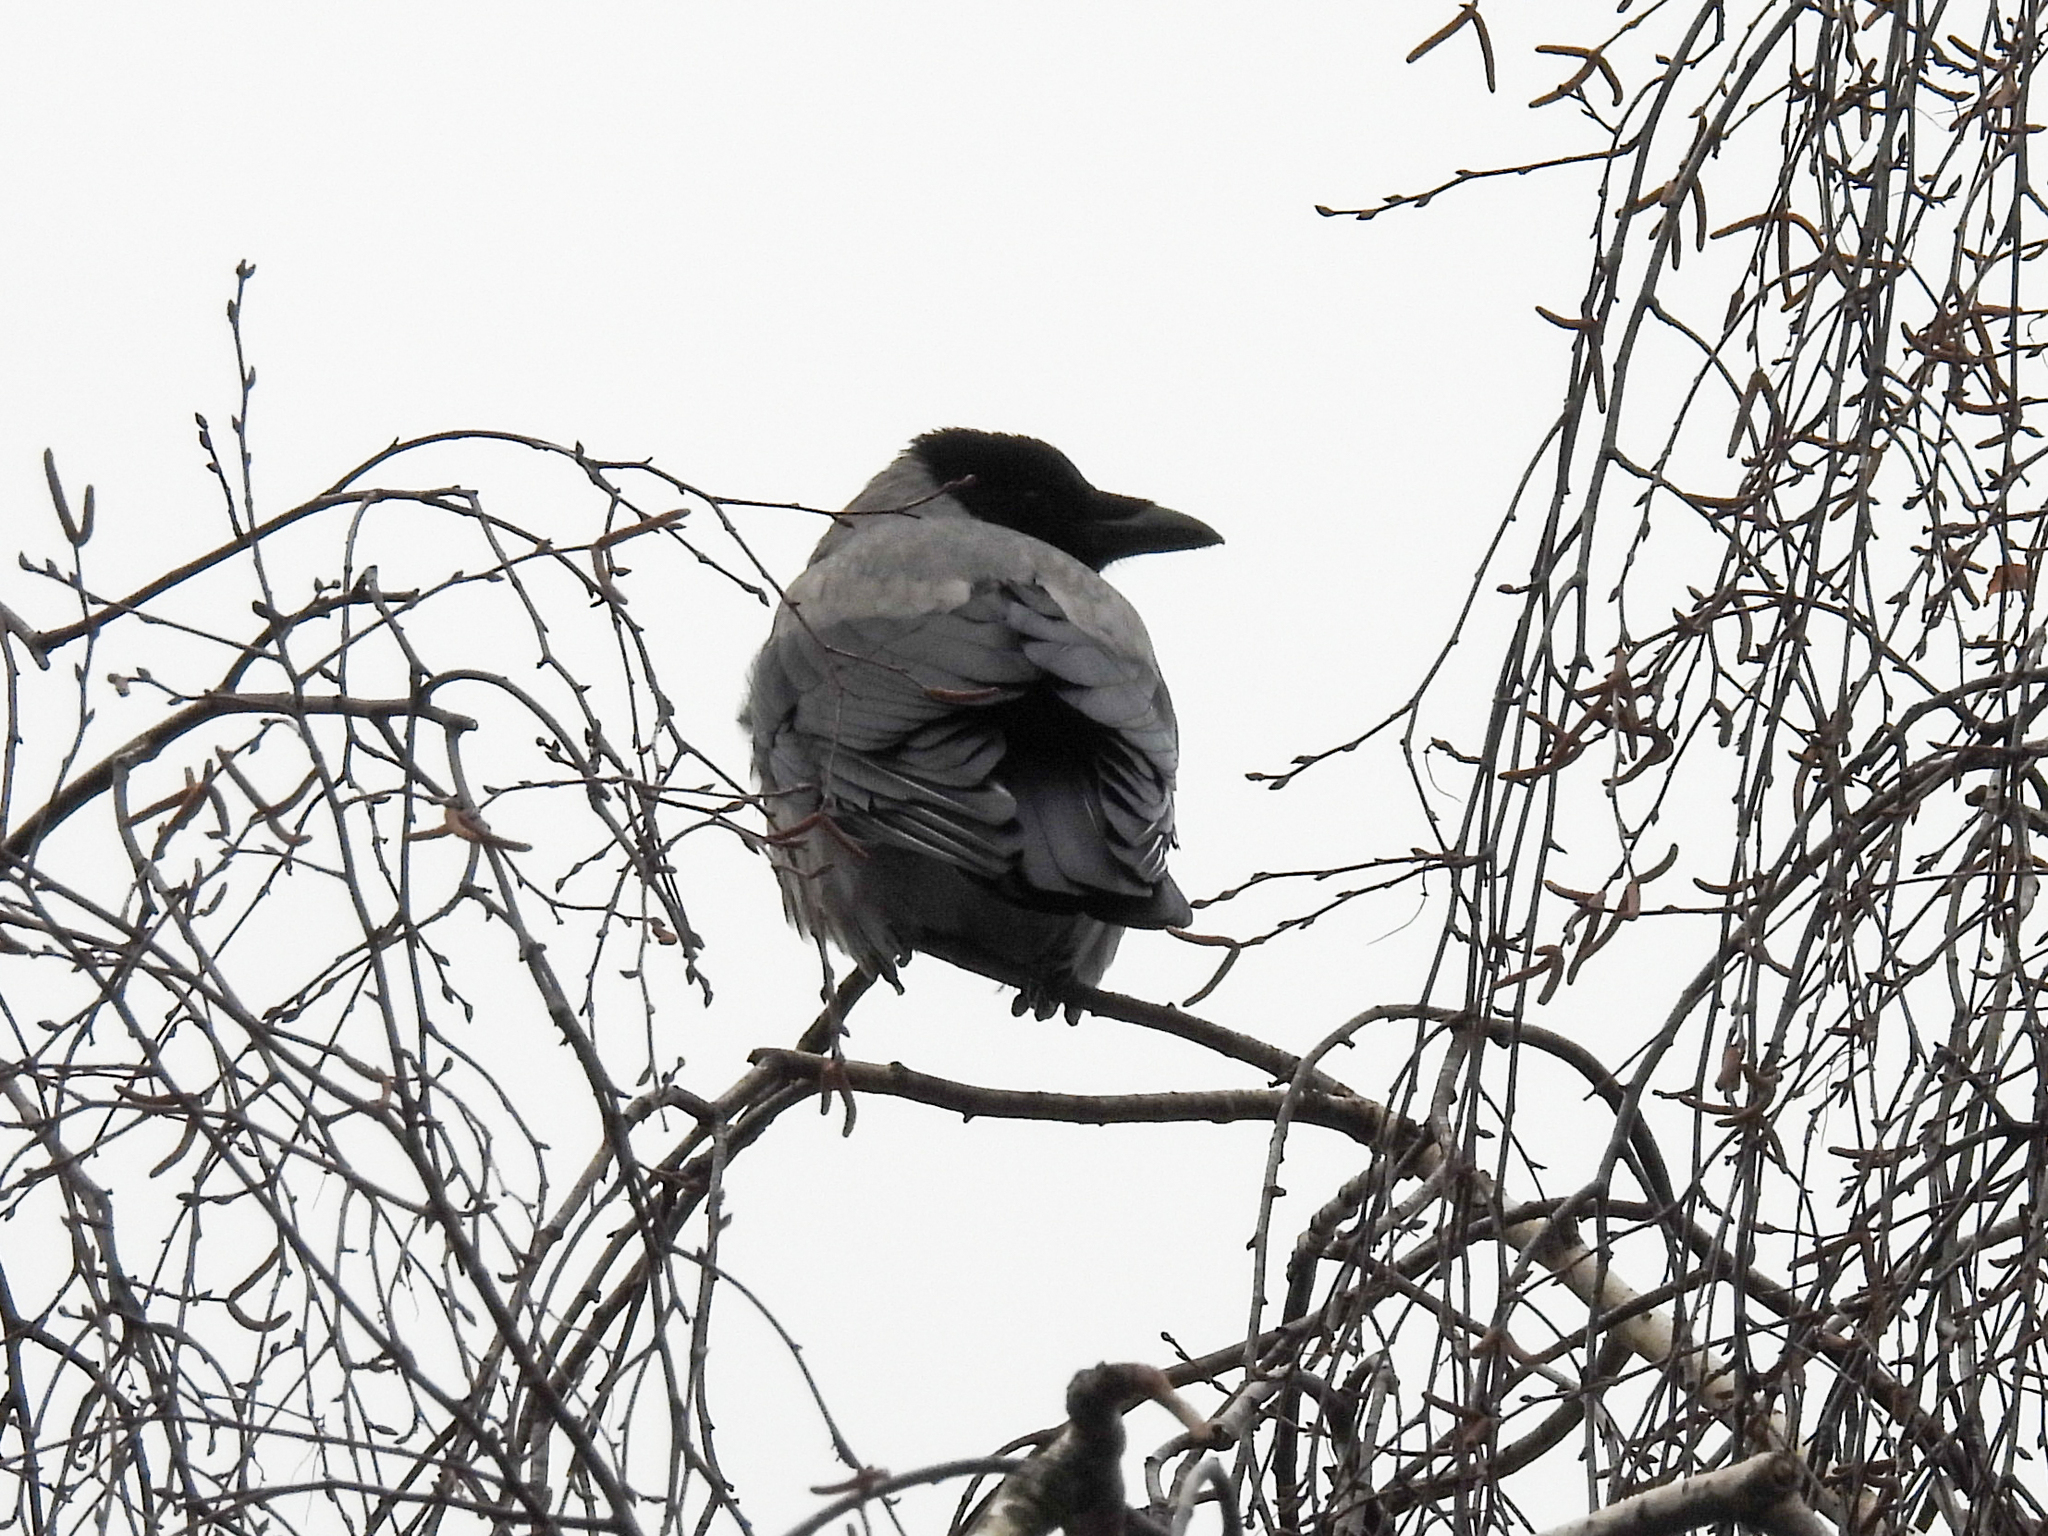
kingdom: Animalia
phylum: Chordata
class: Aves
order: Passeriformes
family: Corvidae
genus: Corvus
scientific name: Corvus cornix
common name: Hooded crow
